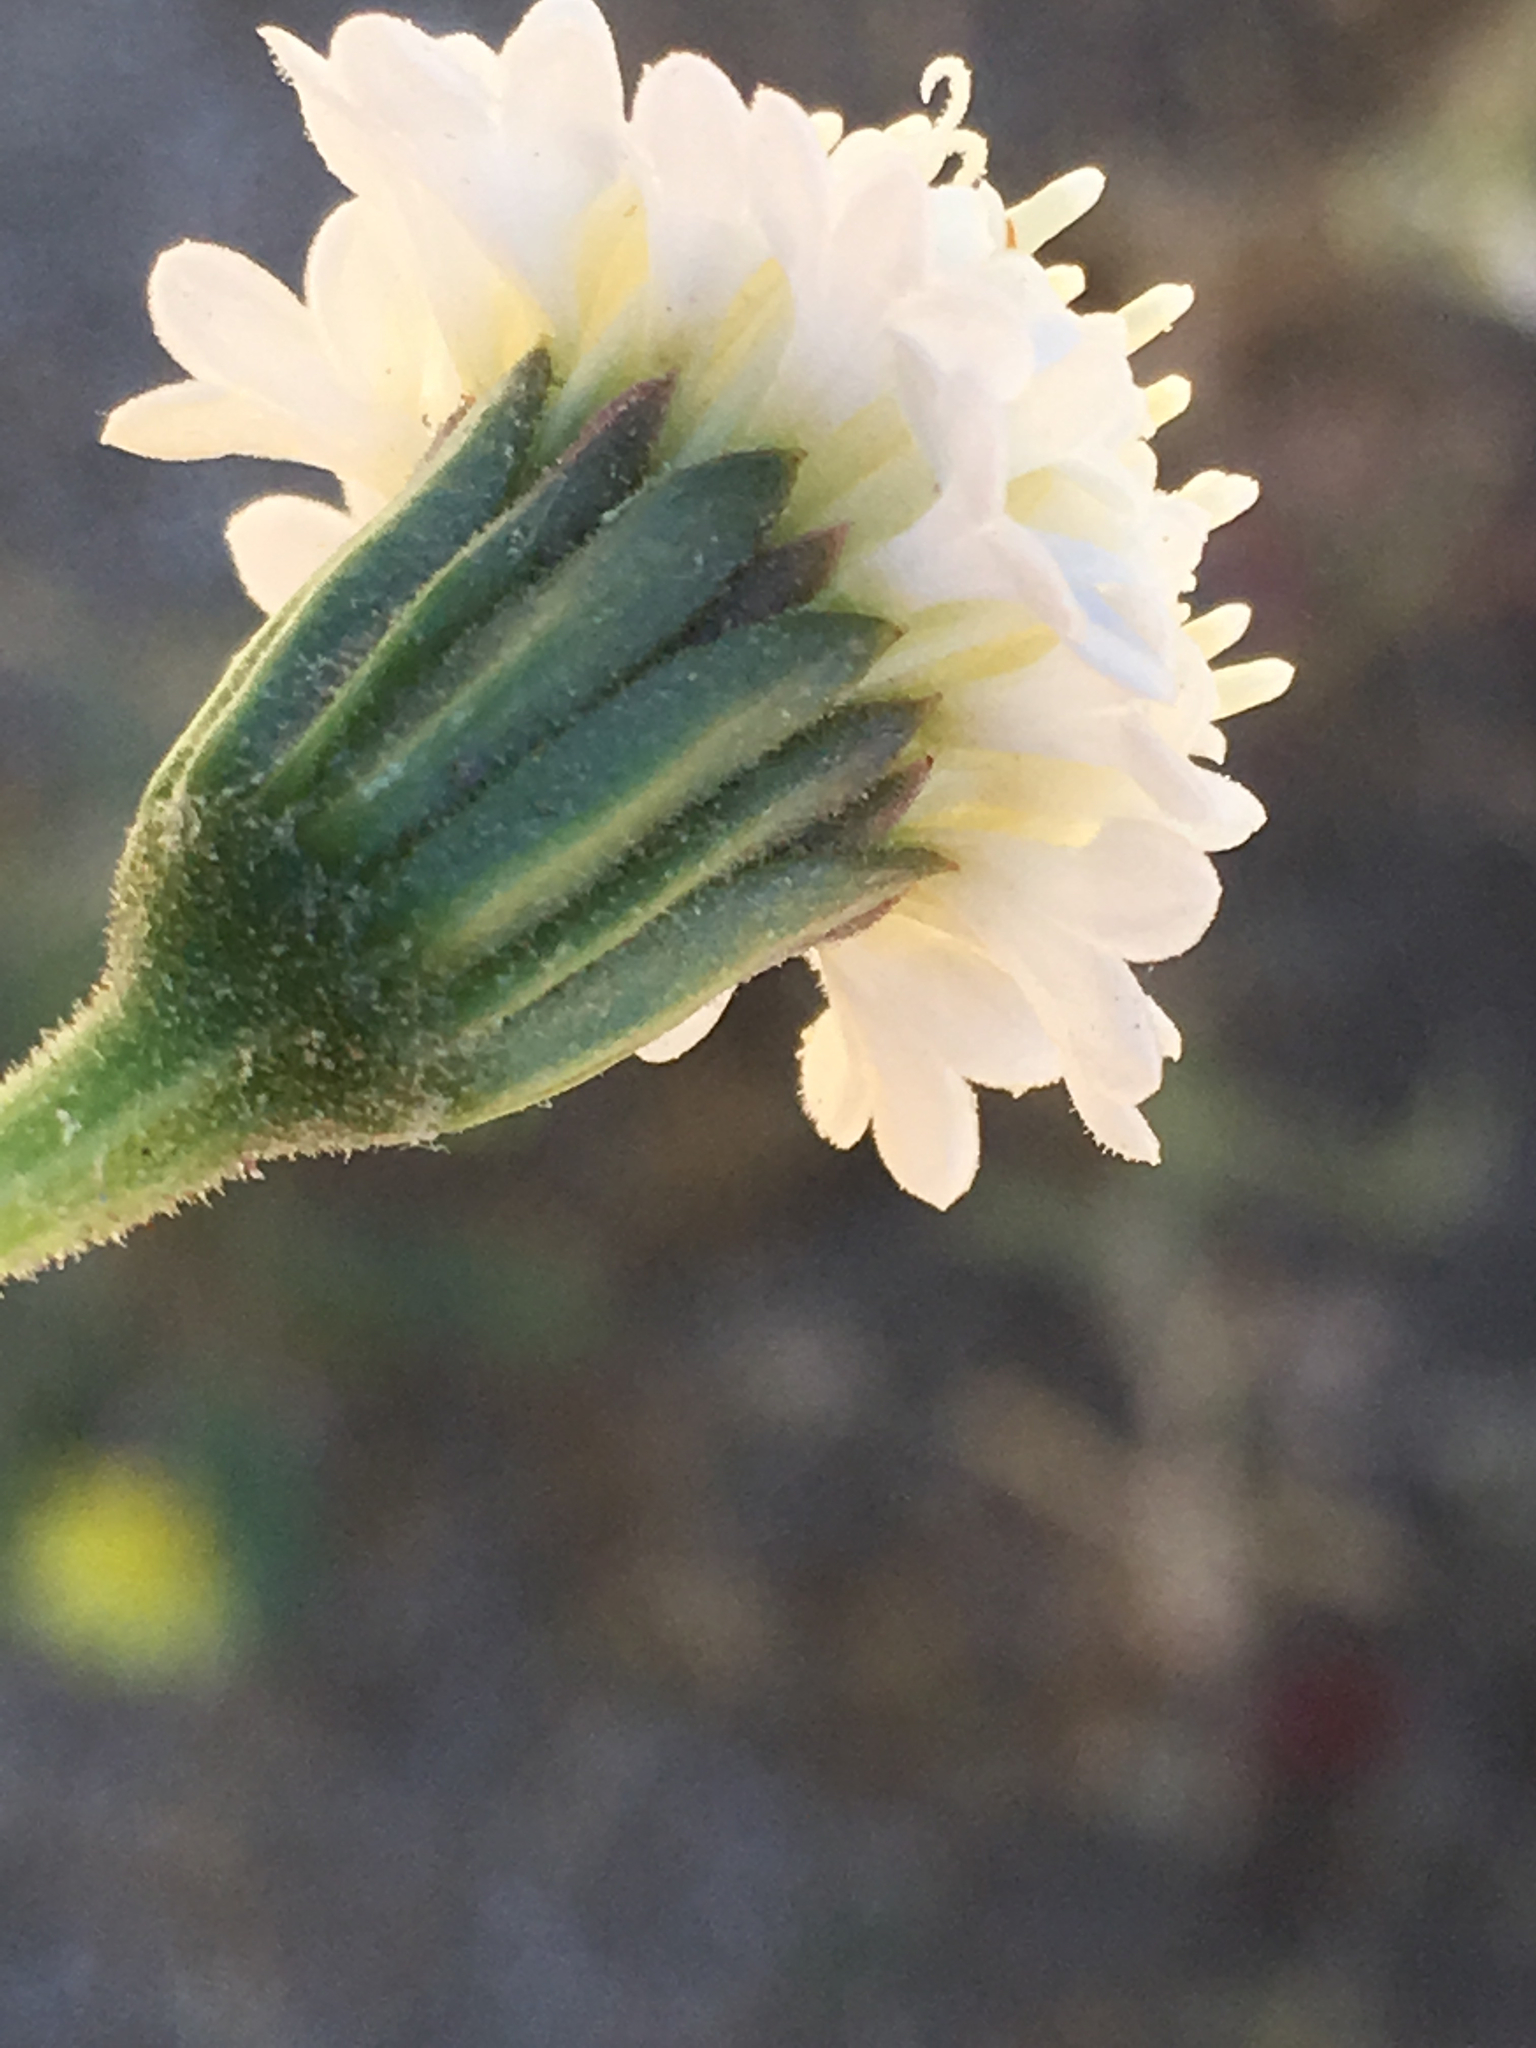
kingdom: Plantae
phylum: Tracheophyta
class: Magnoliopsida
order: Asterales
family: Asteraceae
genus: Chaenactis
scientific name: Chaenactis fremontii
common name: Fremont pincushion
